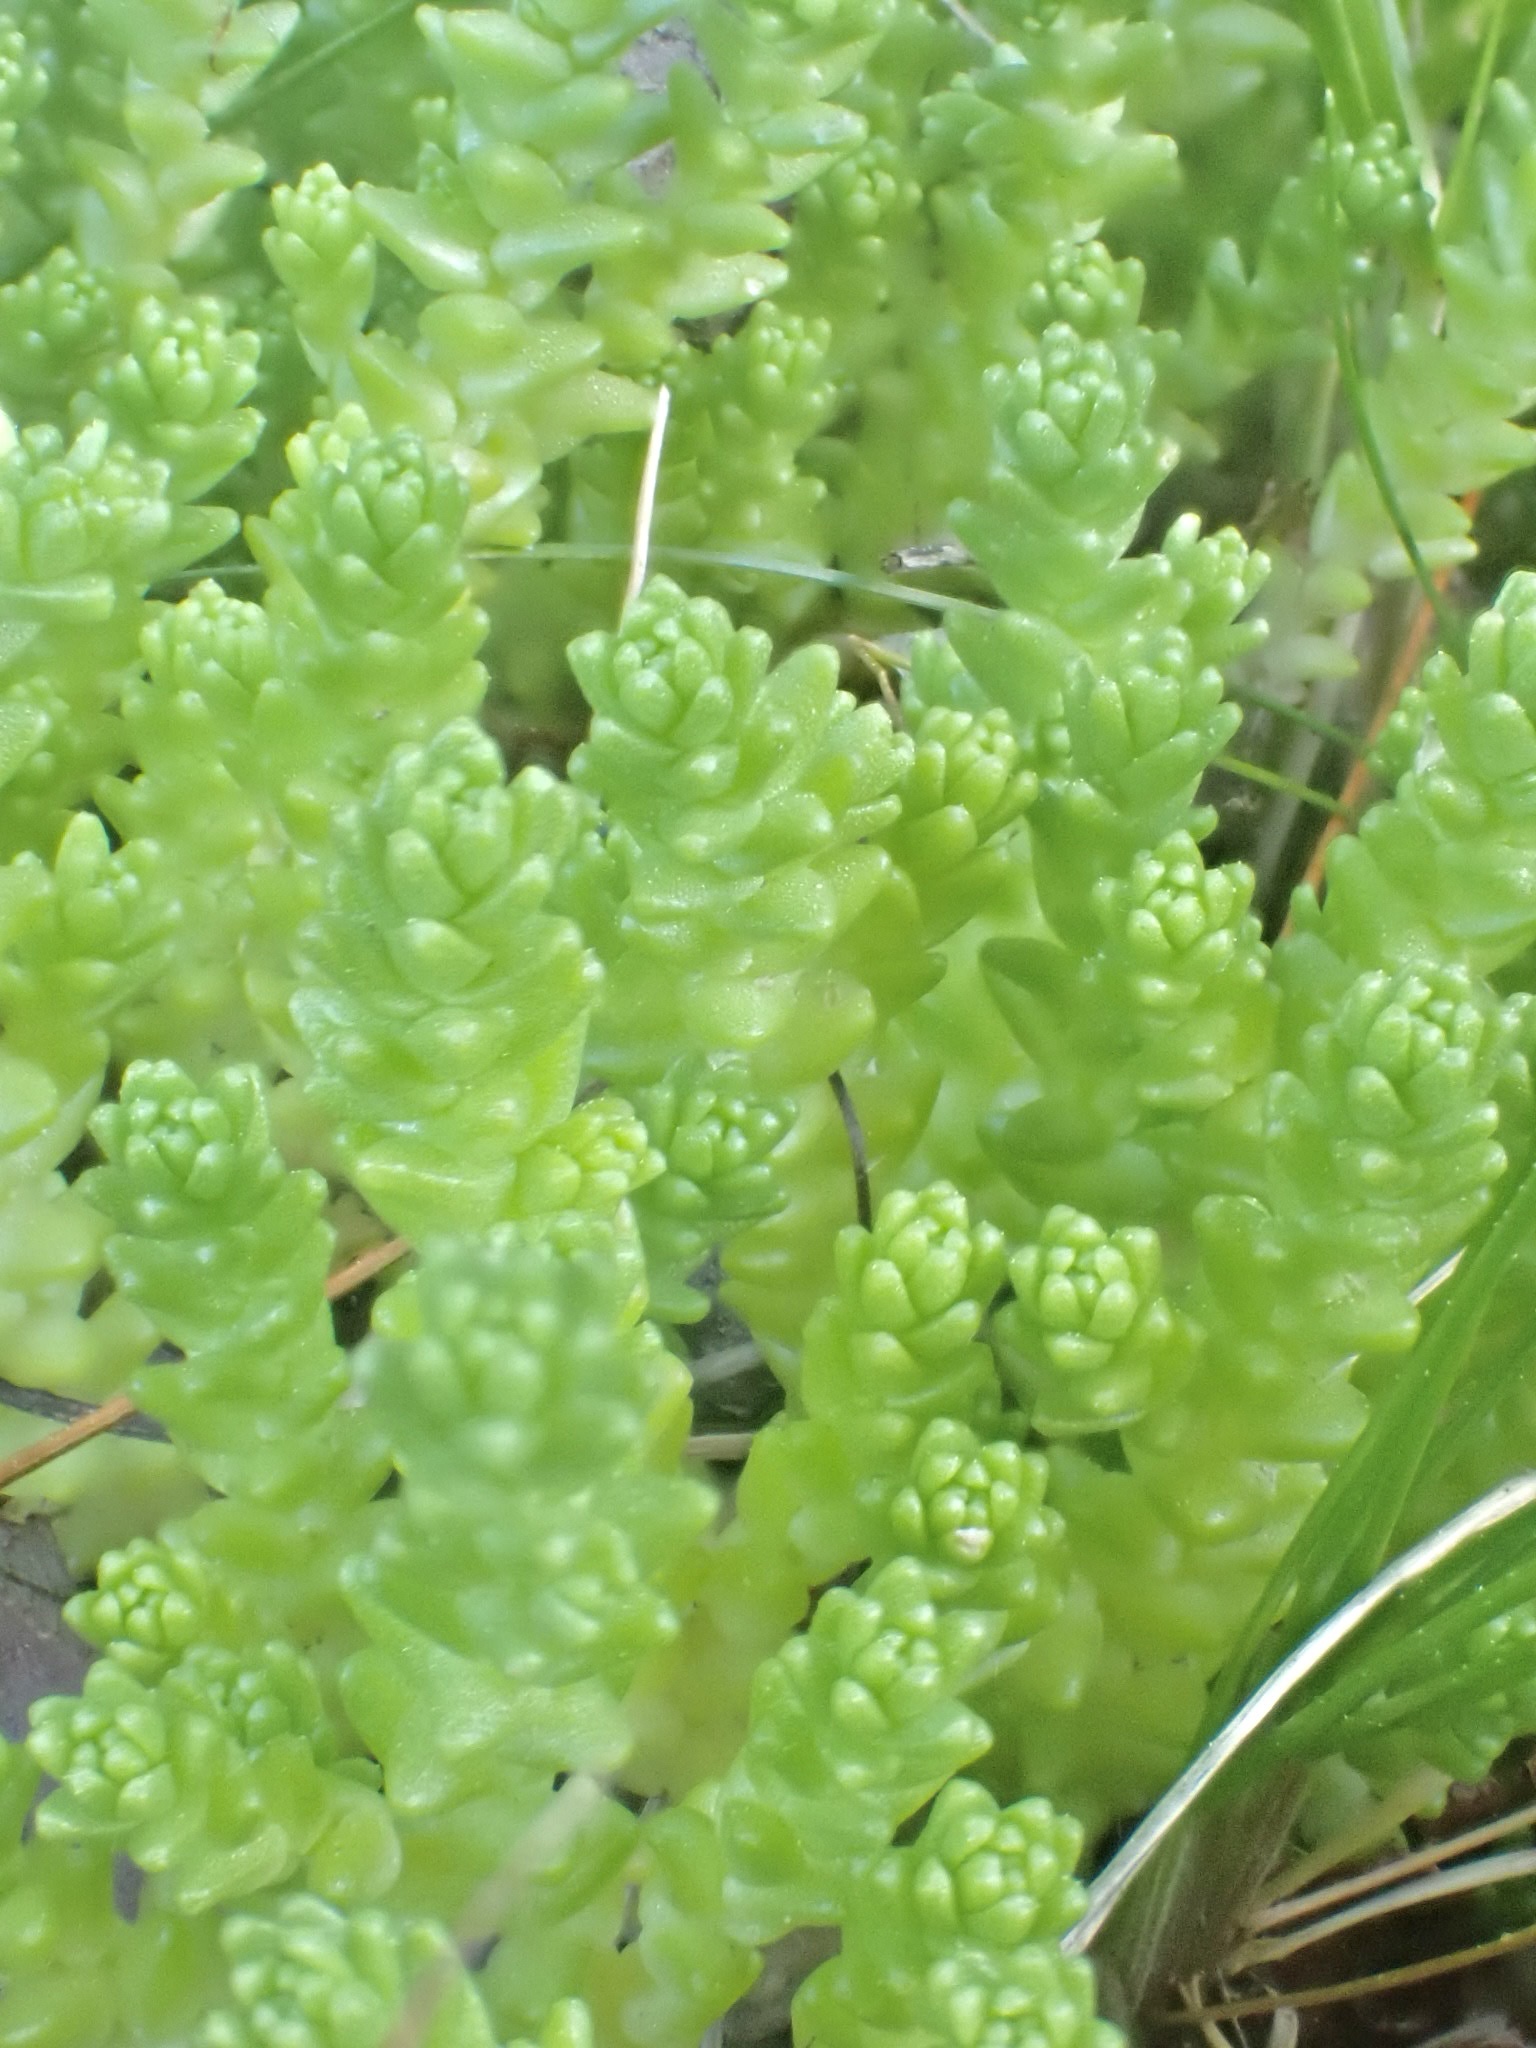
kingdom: Plantae
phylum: Tracheophyta
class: Magnoliopsida
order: Saxifragales
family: Crassulaceae
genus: Sedum
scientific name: Sedum acre
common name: Biting stonecrop
